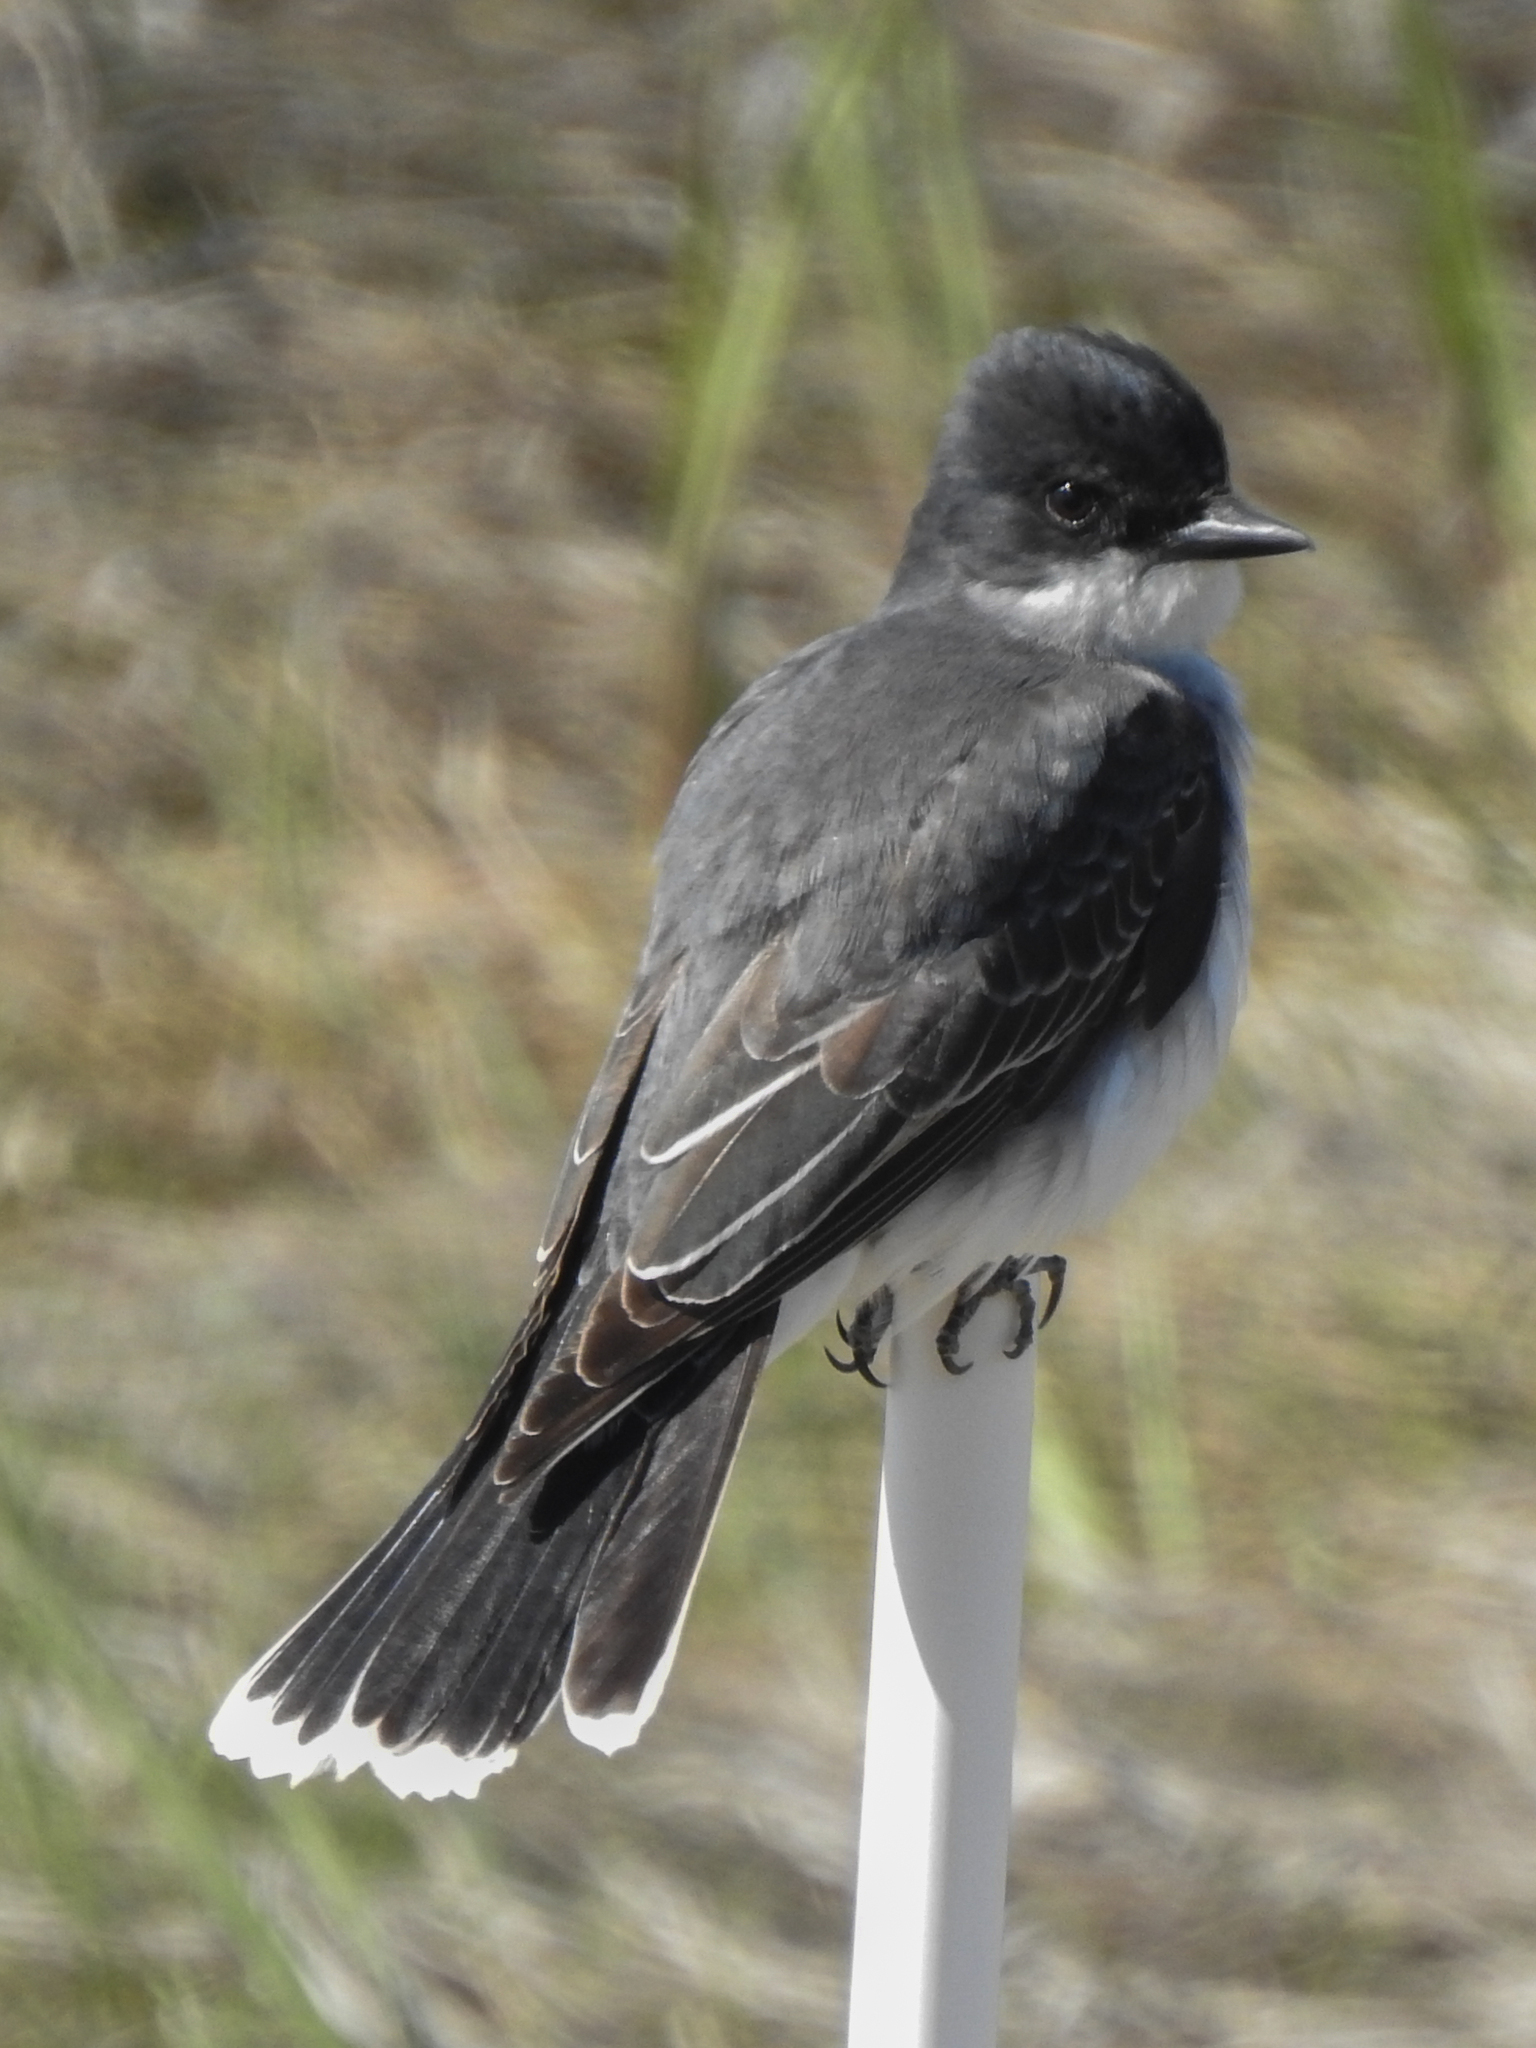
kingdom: Animalia
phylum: Chordata
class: Aves
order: Passeriformes
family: Tyrannidae
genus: Tyrannus
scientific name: Tyrannus tyrannus
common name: Eastern kingbird
